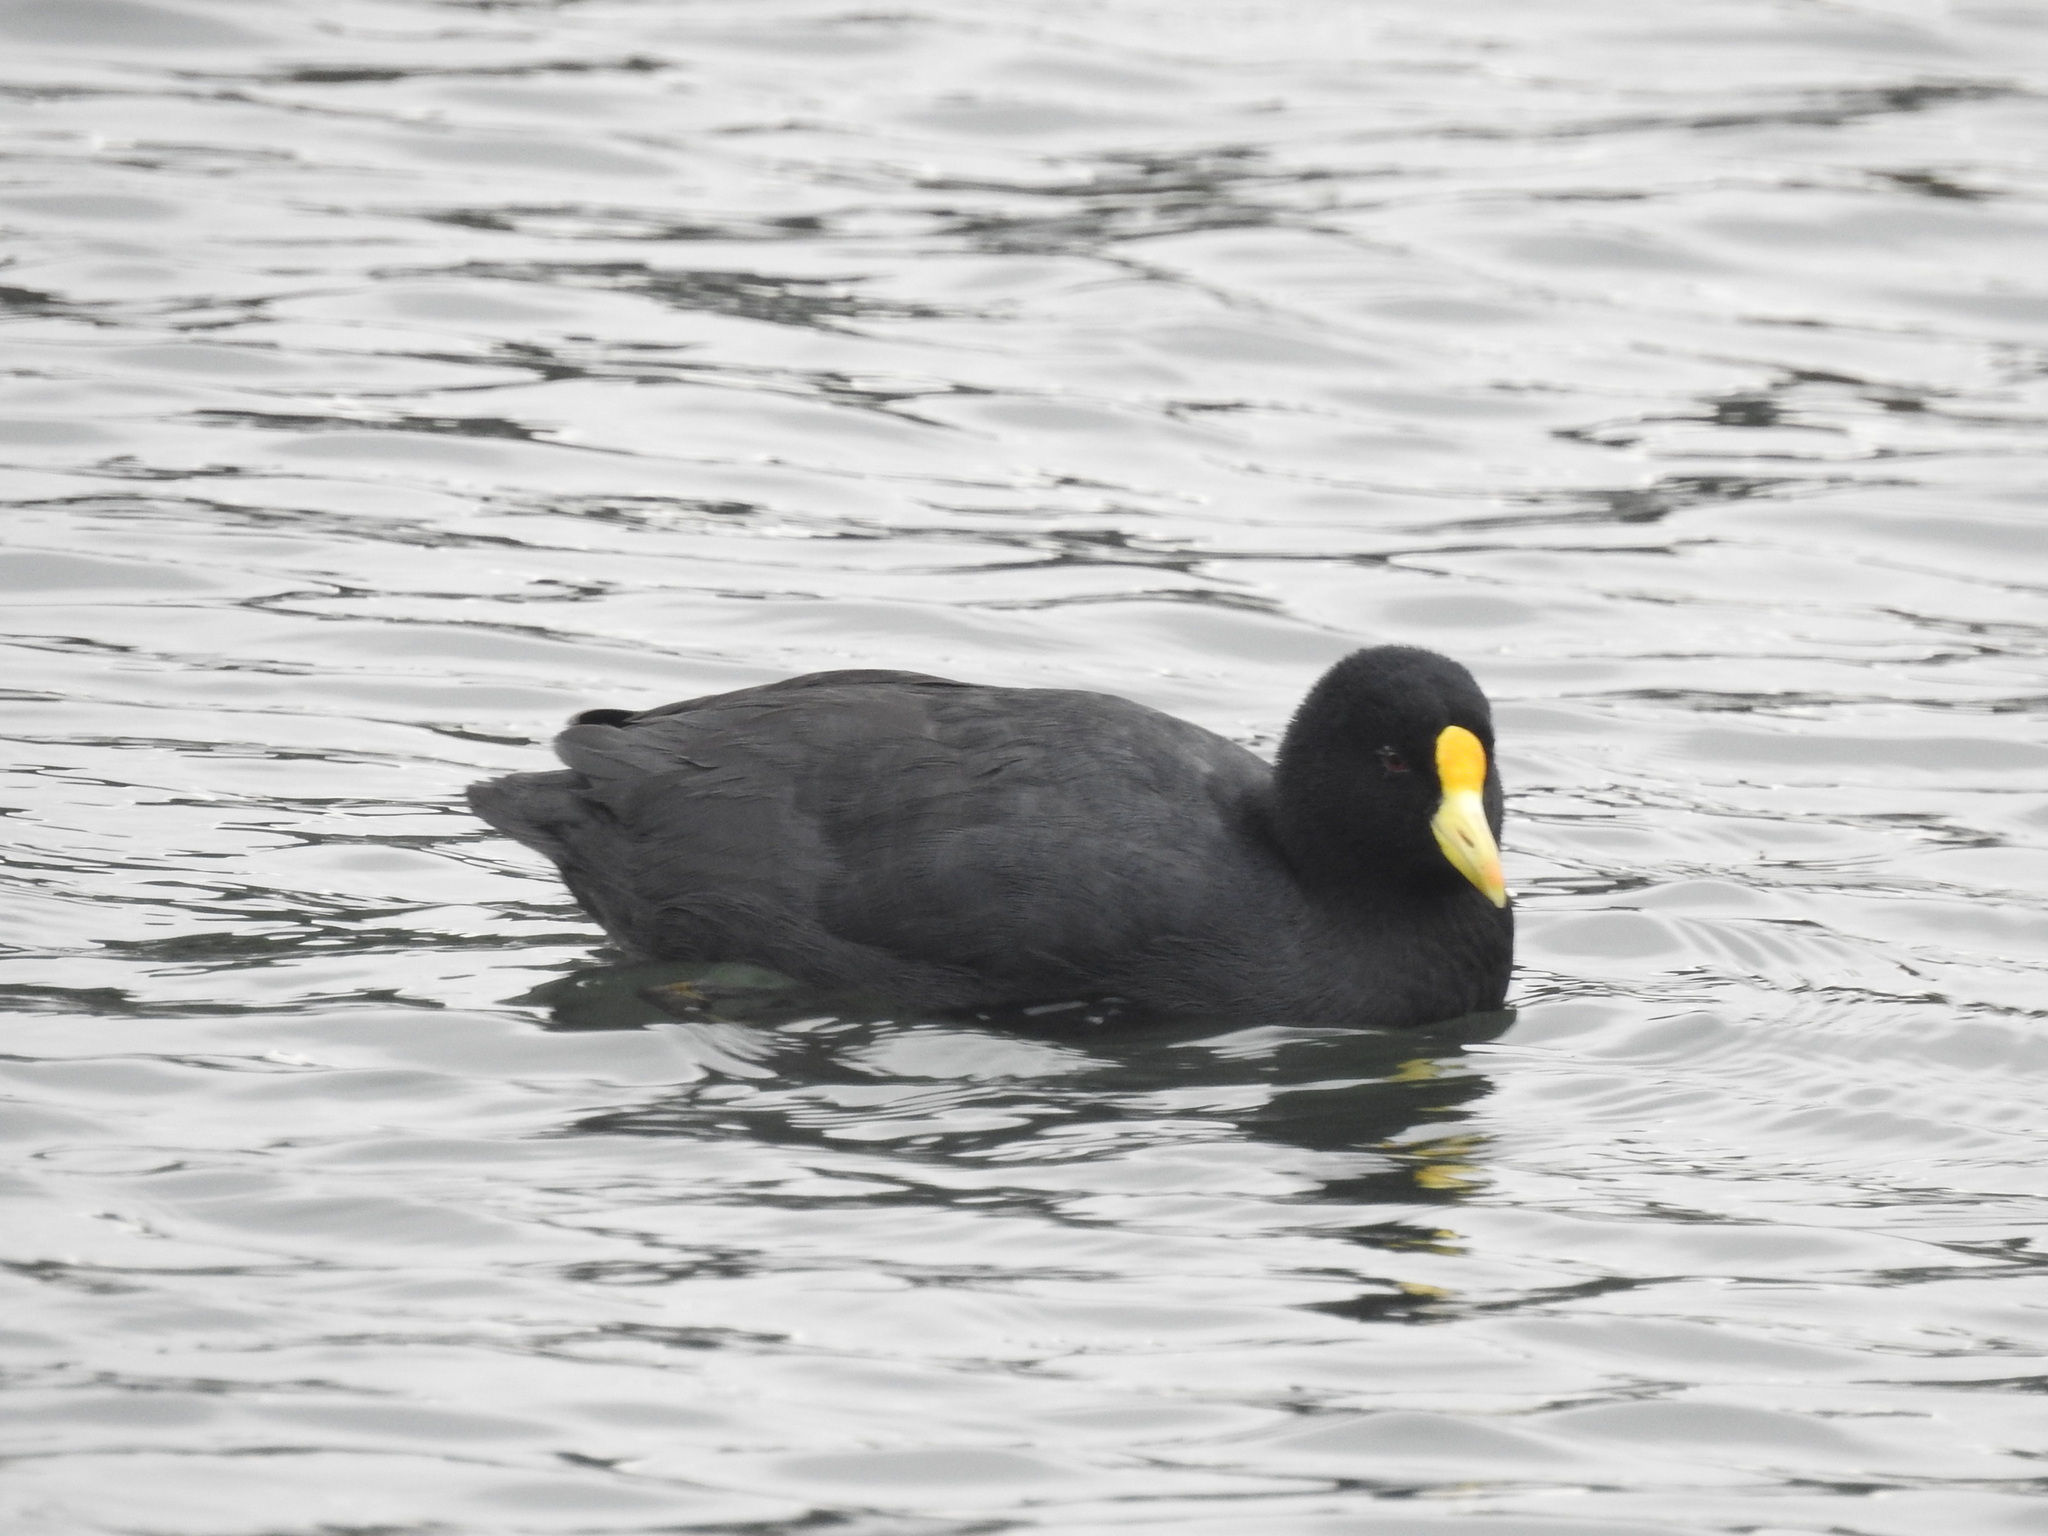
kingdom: Animalia
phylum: Chordata
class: Aves
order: Gruiformes
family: Rallidae
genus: Fulica
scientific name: Fulica leucoptera
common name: White-winged coot
